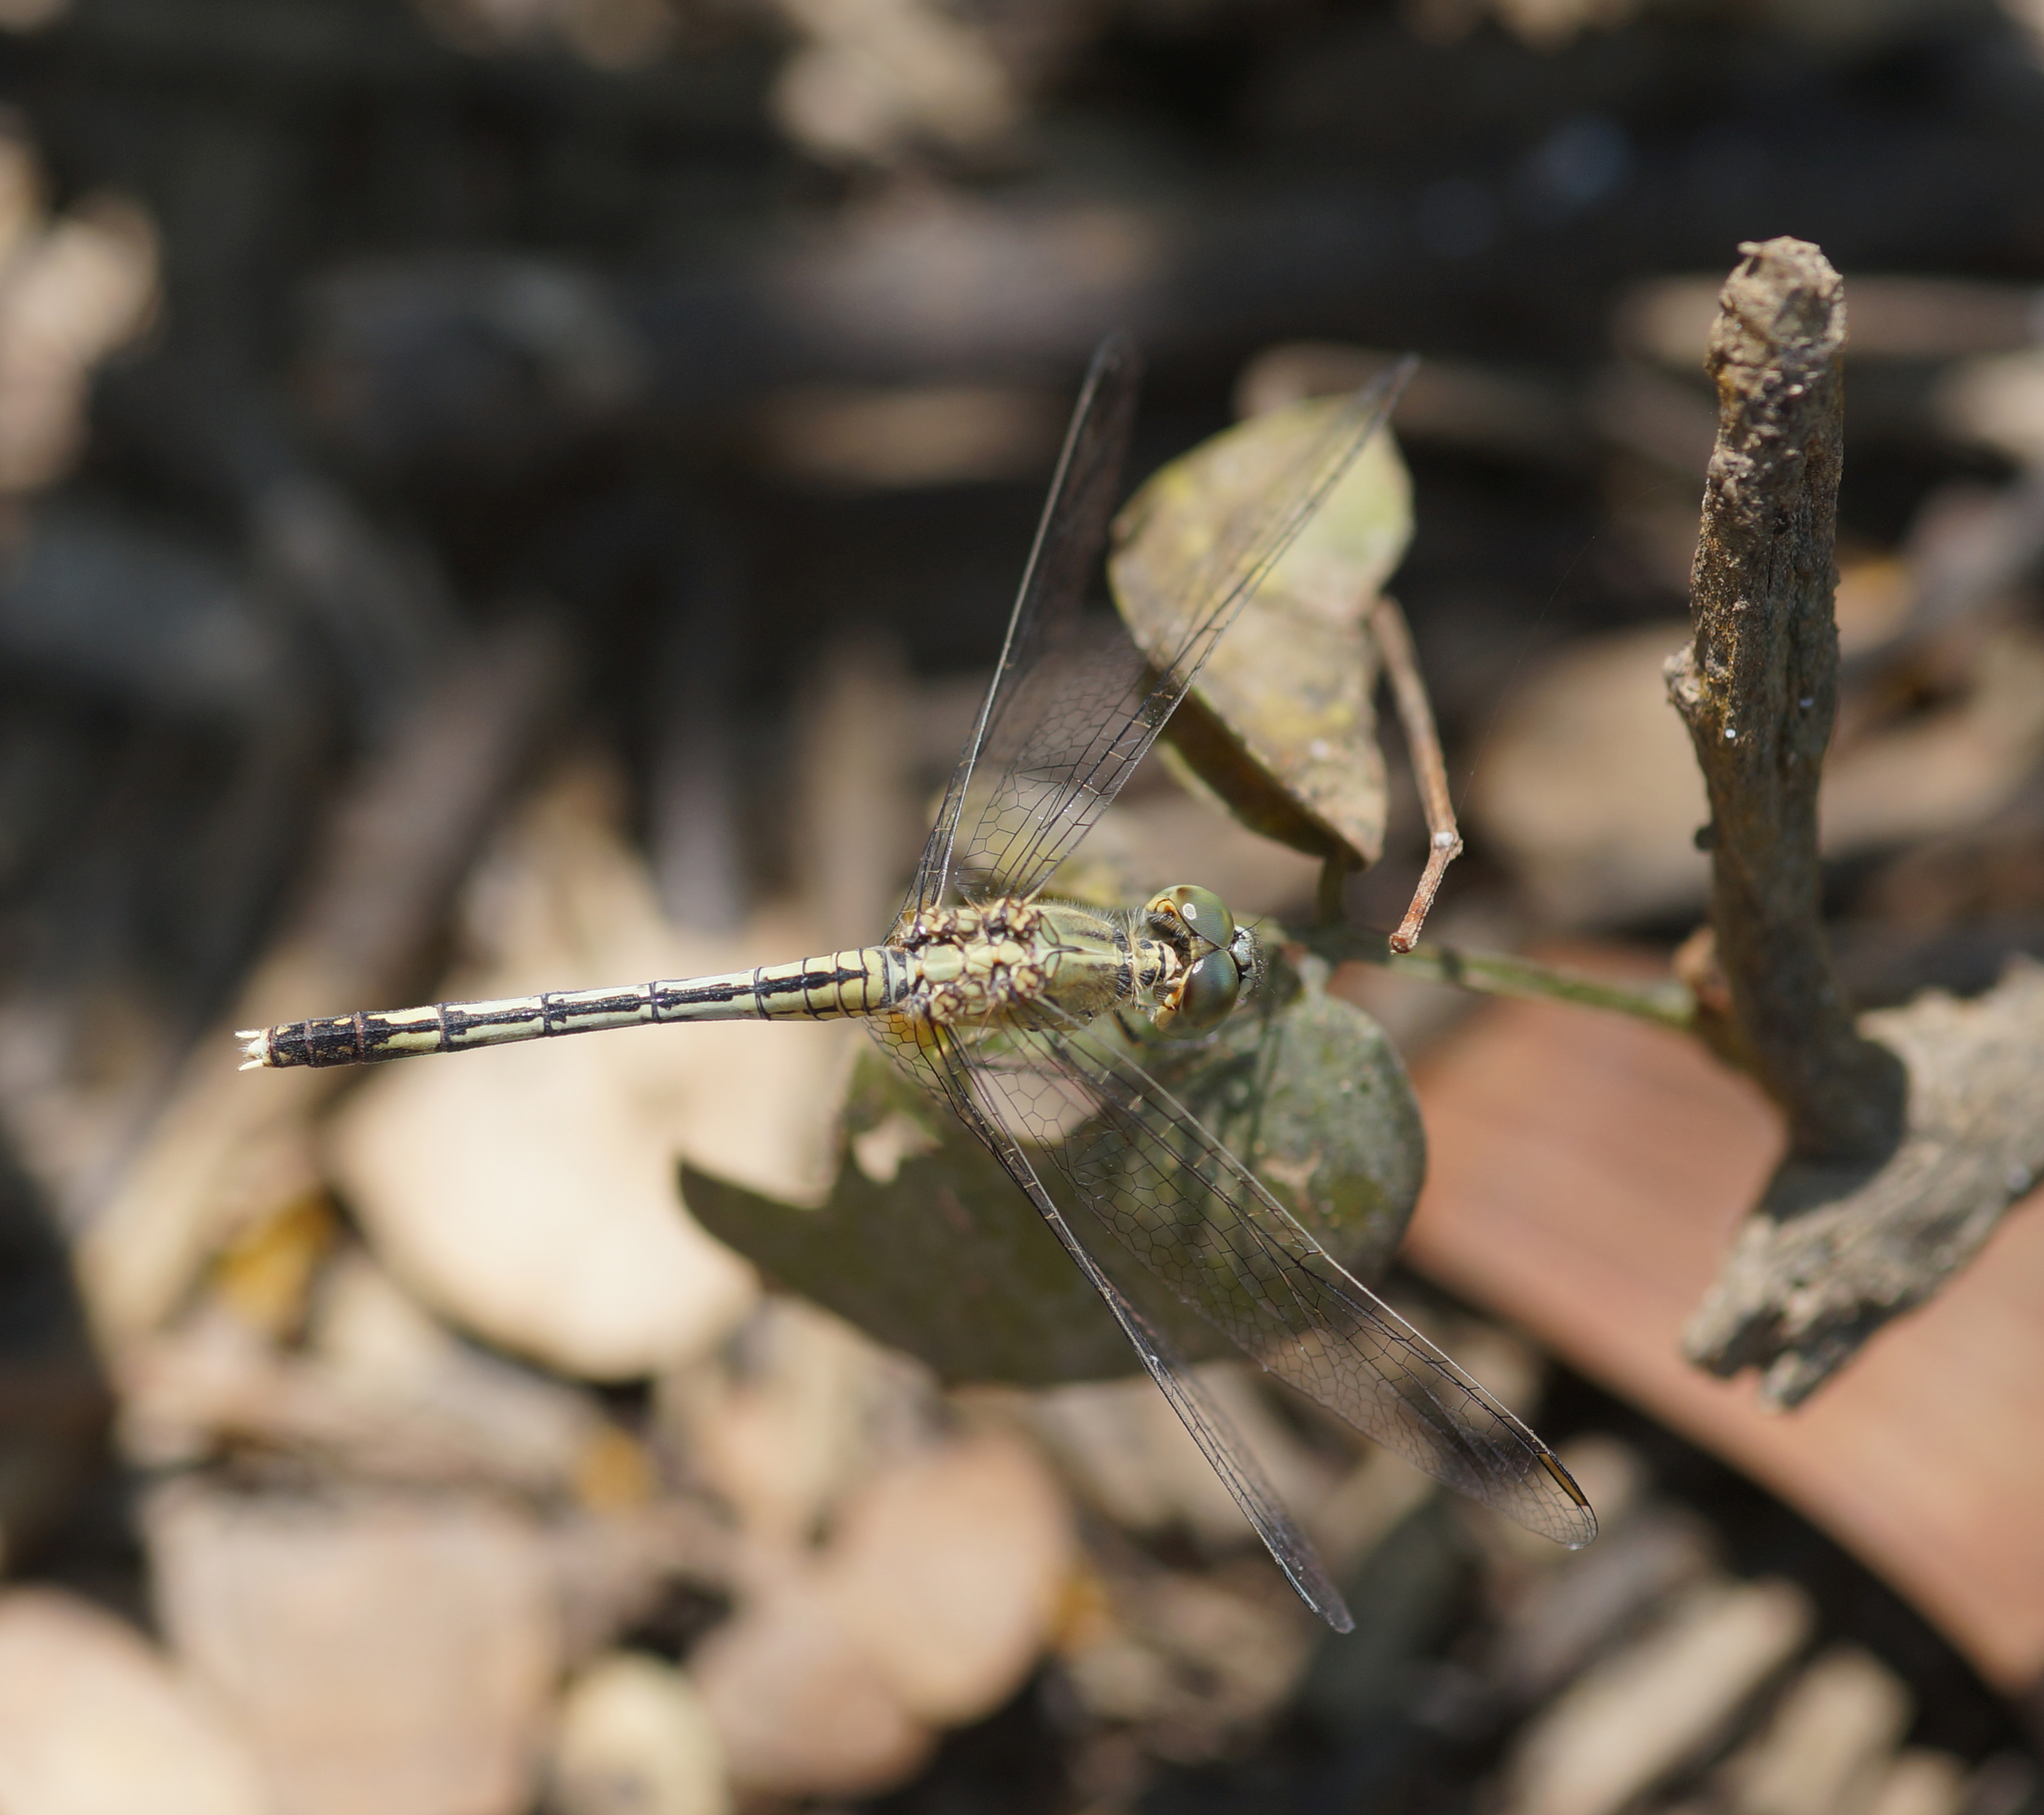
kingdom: Animalia
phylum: Arthropoda
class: Insecta
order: Odonata
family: Libellulidae
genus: Diplacodes
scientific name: Diplacodes trivialis
